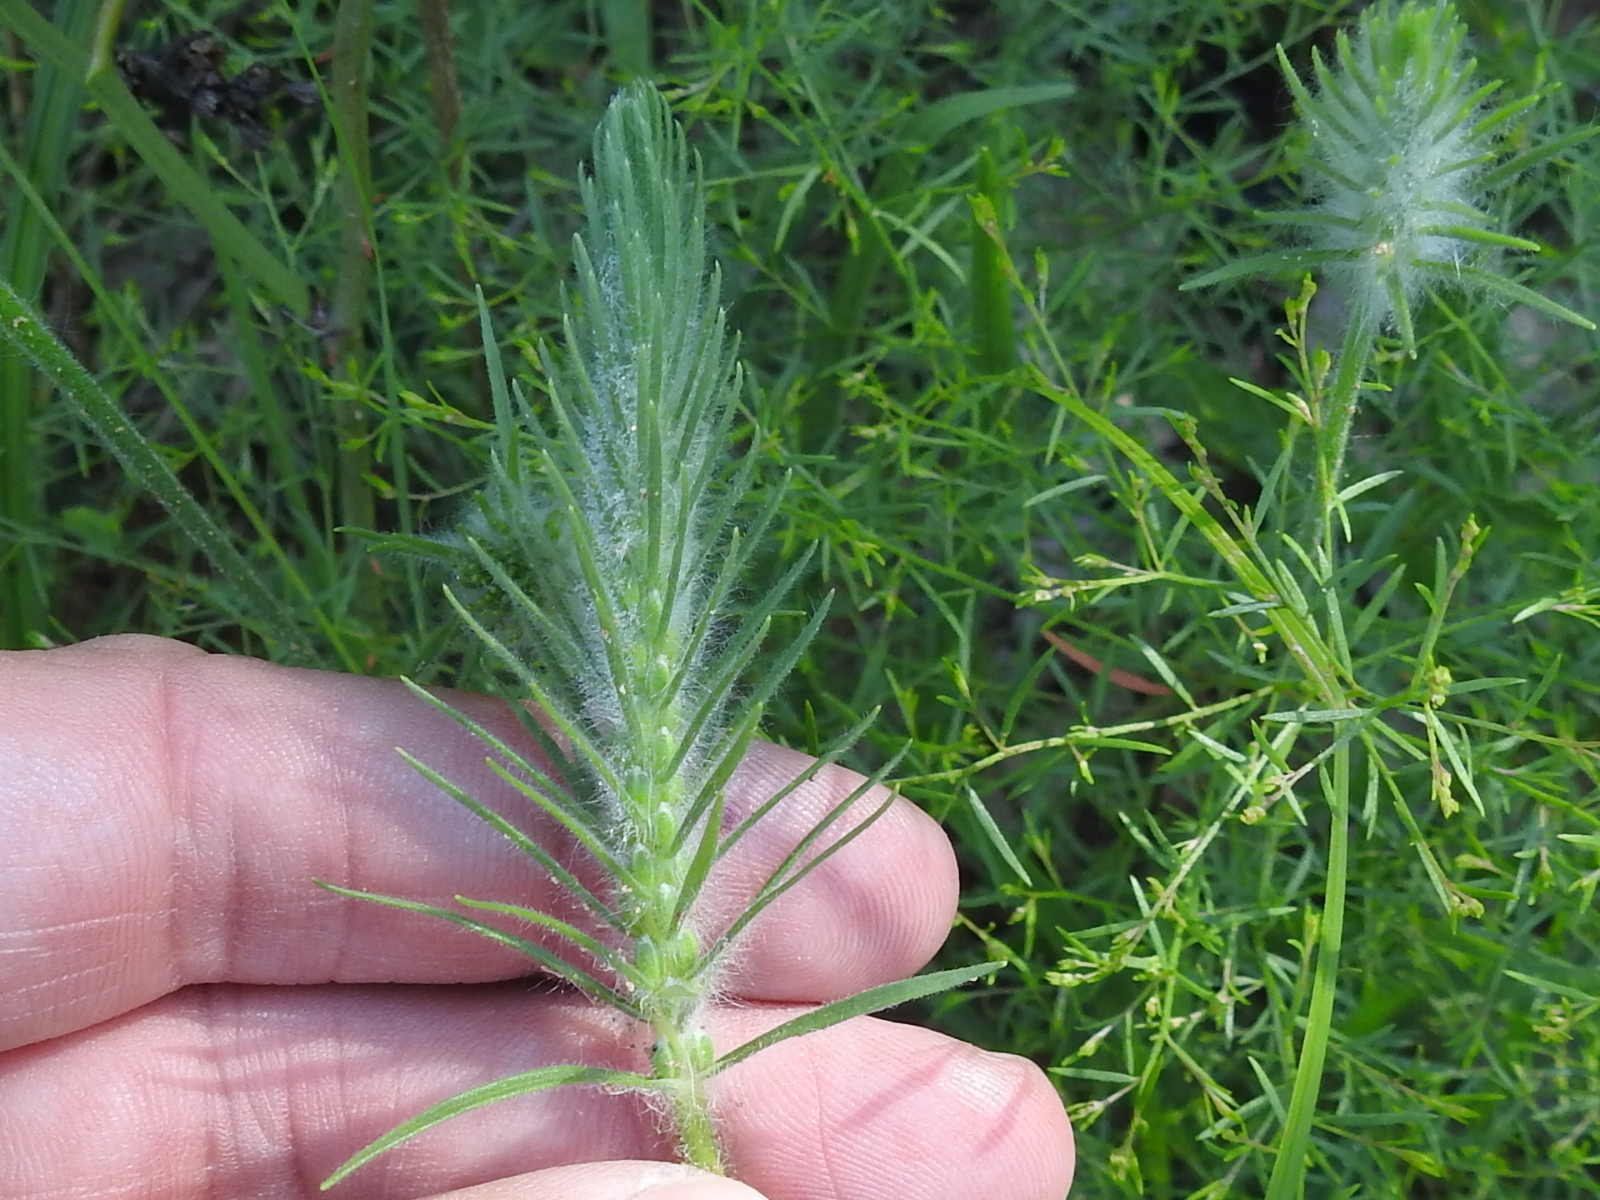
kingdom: Plantae
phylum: Tracheophyta
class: Magnoliopsida
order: Lamiales
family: Plantaginaceae
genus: Plantago
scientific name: Plantago aristata
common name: Bracted plantain
